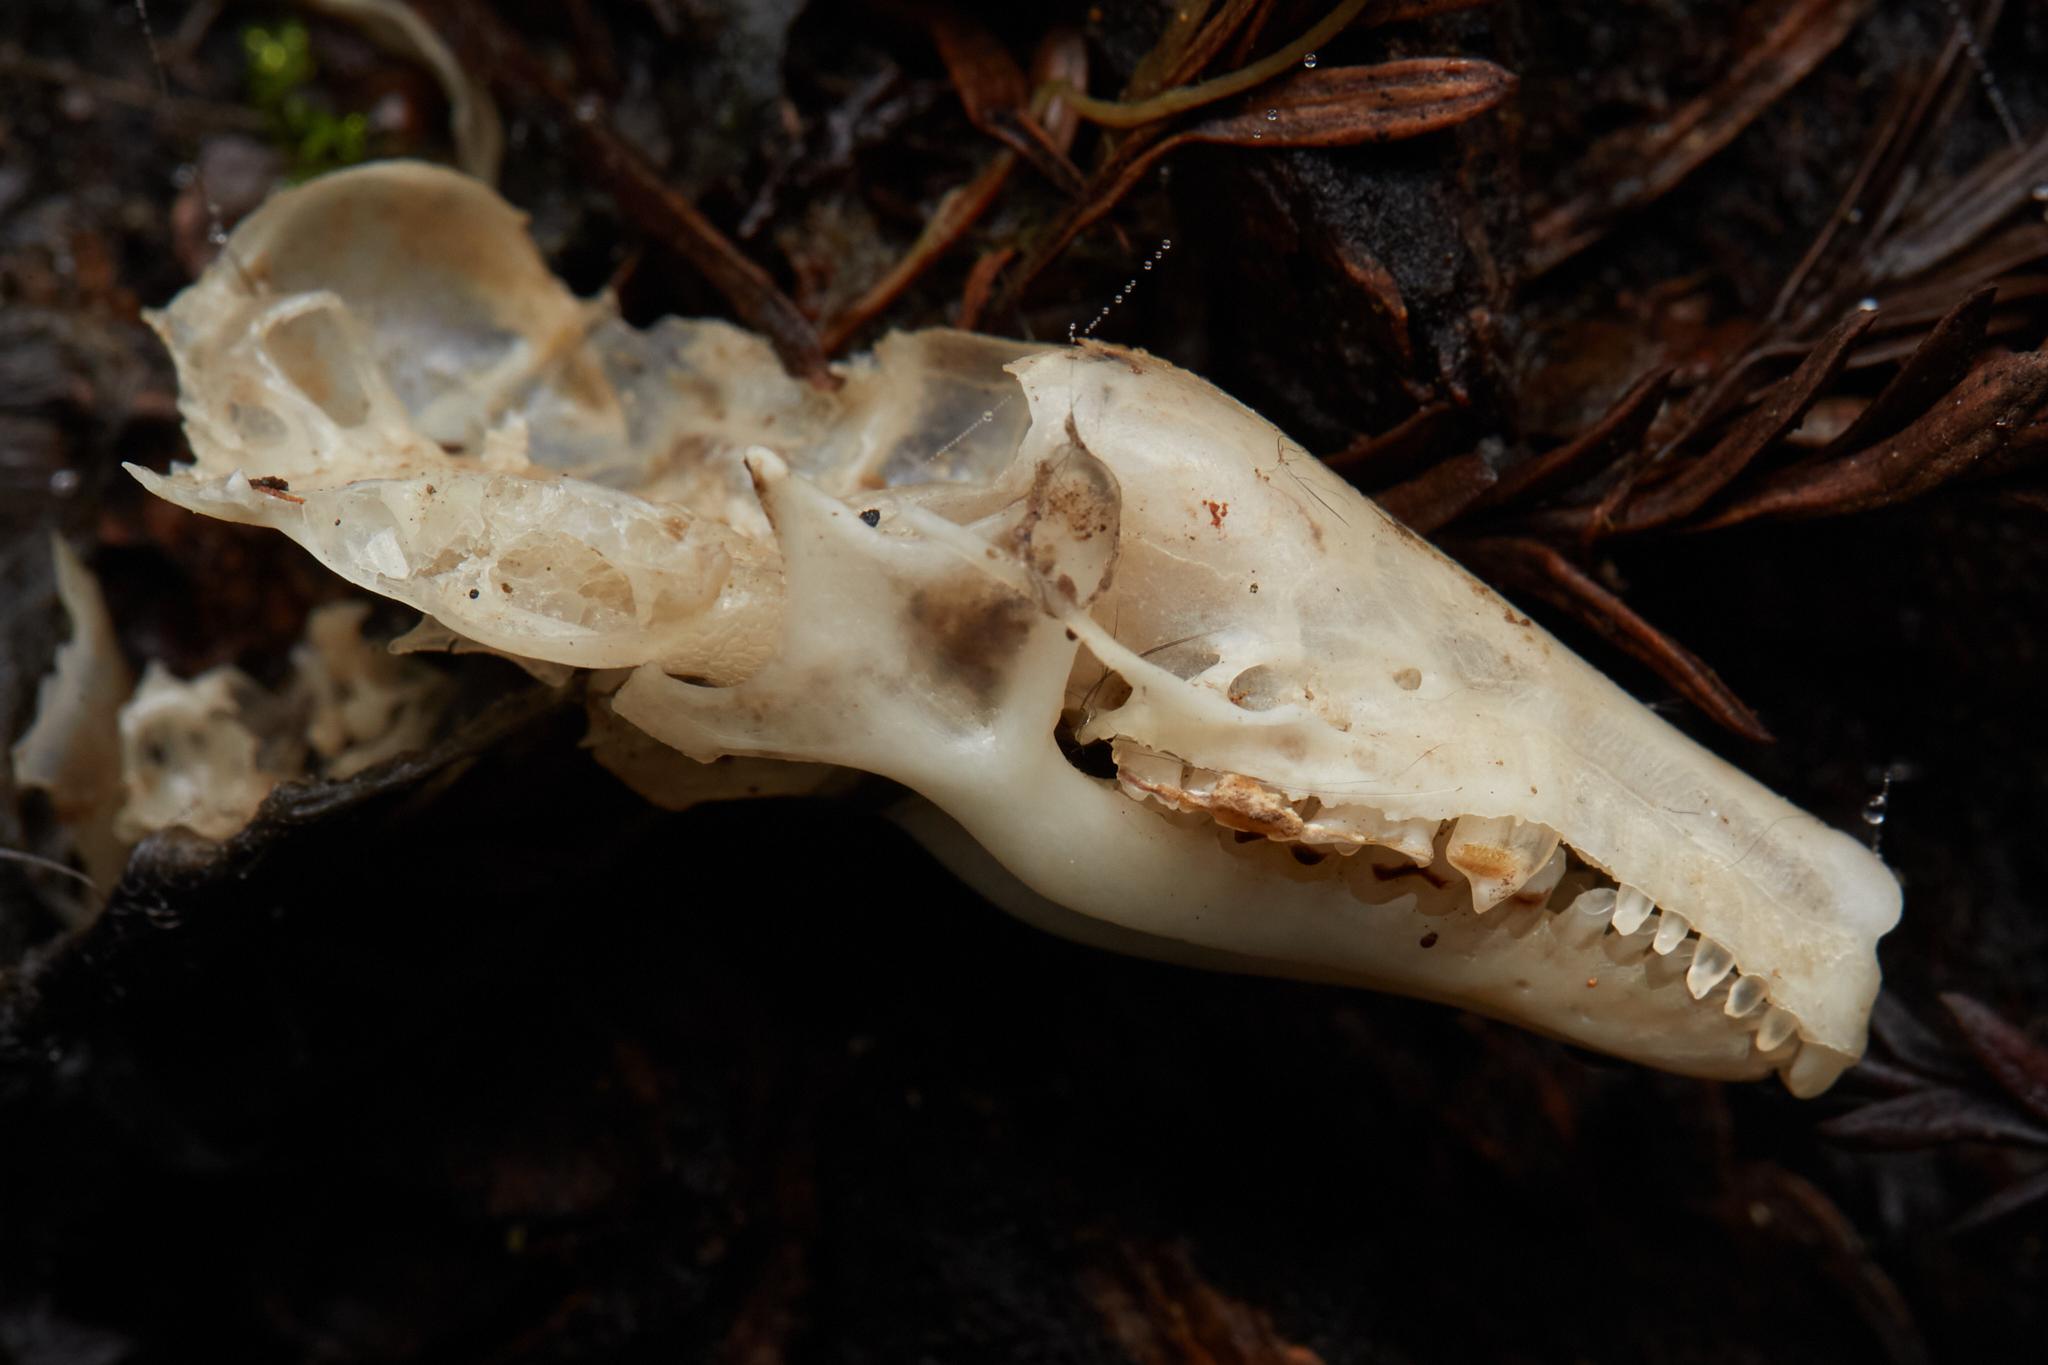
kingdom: Animalia
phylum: Chordata
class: Mammalia
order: Soricomorpha
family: Talpidae
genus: Scapanus
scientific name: Scapanus latimanus
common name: Broad-footed mole
